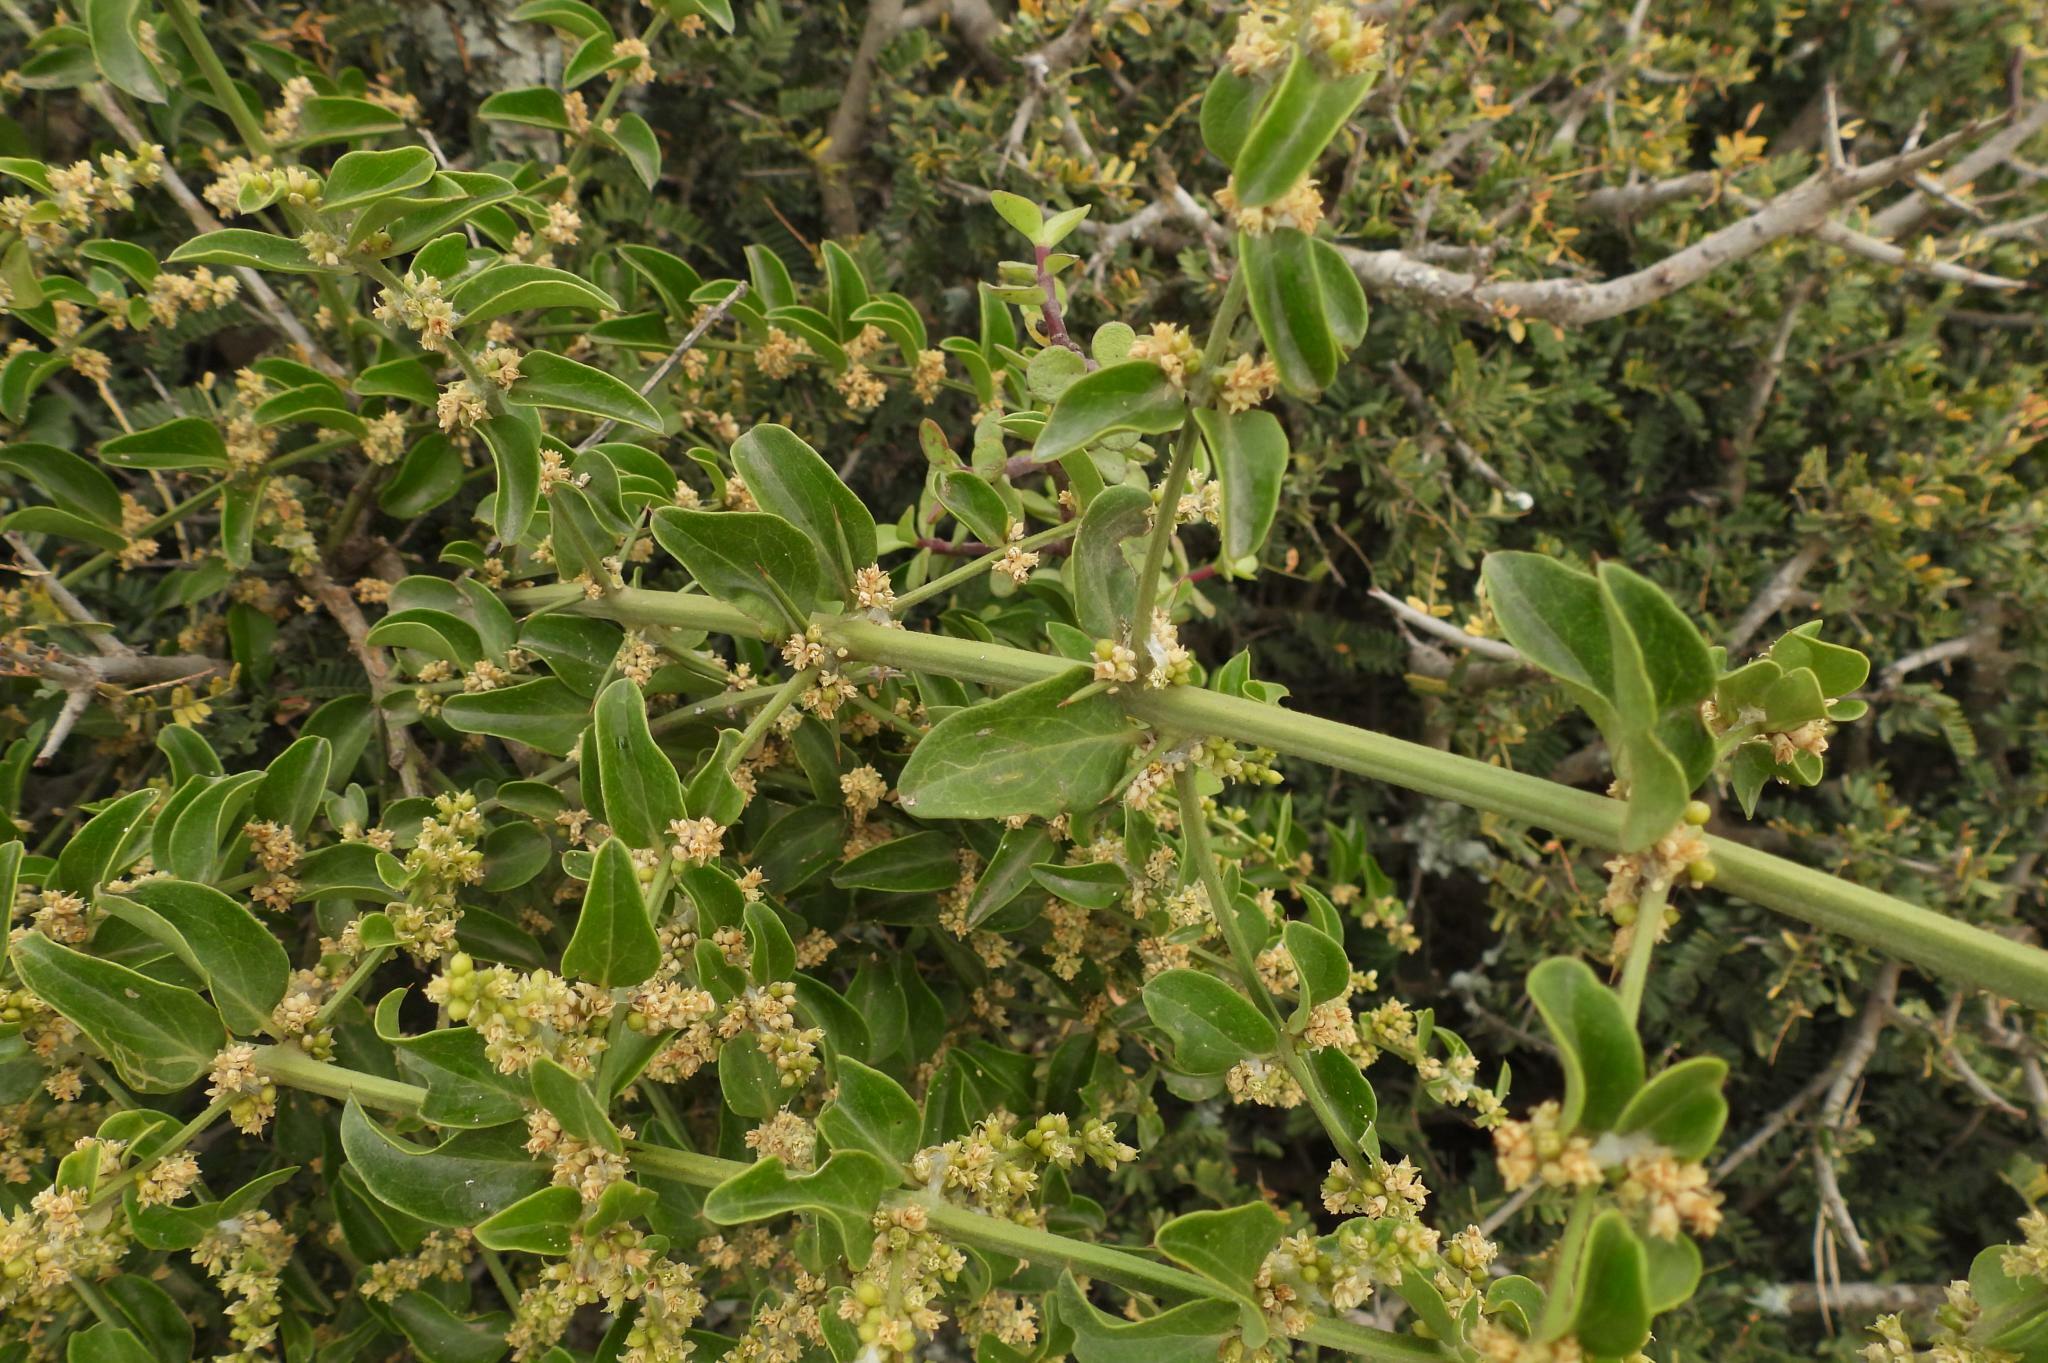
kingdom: Plantae
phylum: Tracheophyta
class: Magnoliopsida
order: Brassicales
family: Salvadoraceae
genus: Azima
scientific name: Azima tetracantha
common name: Needle bush
